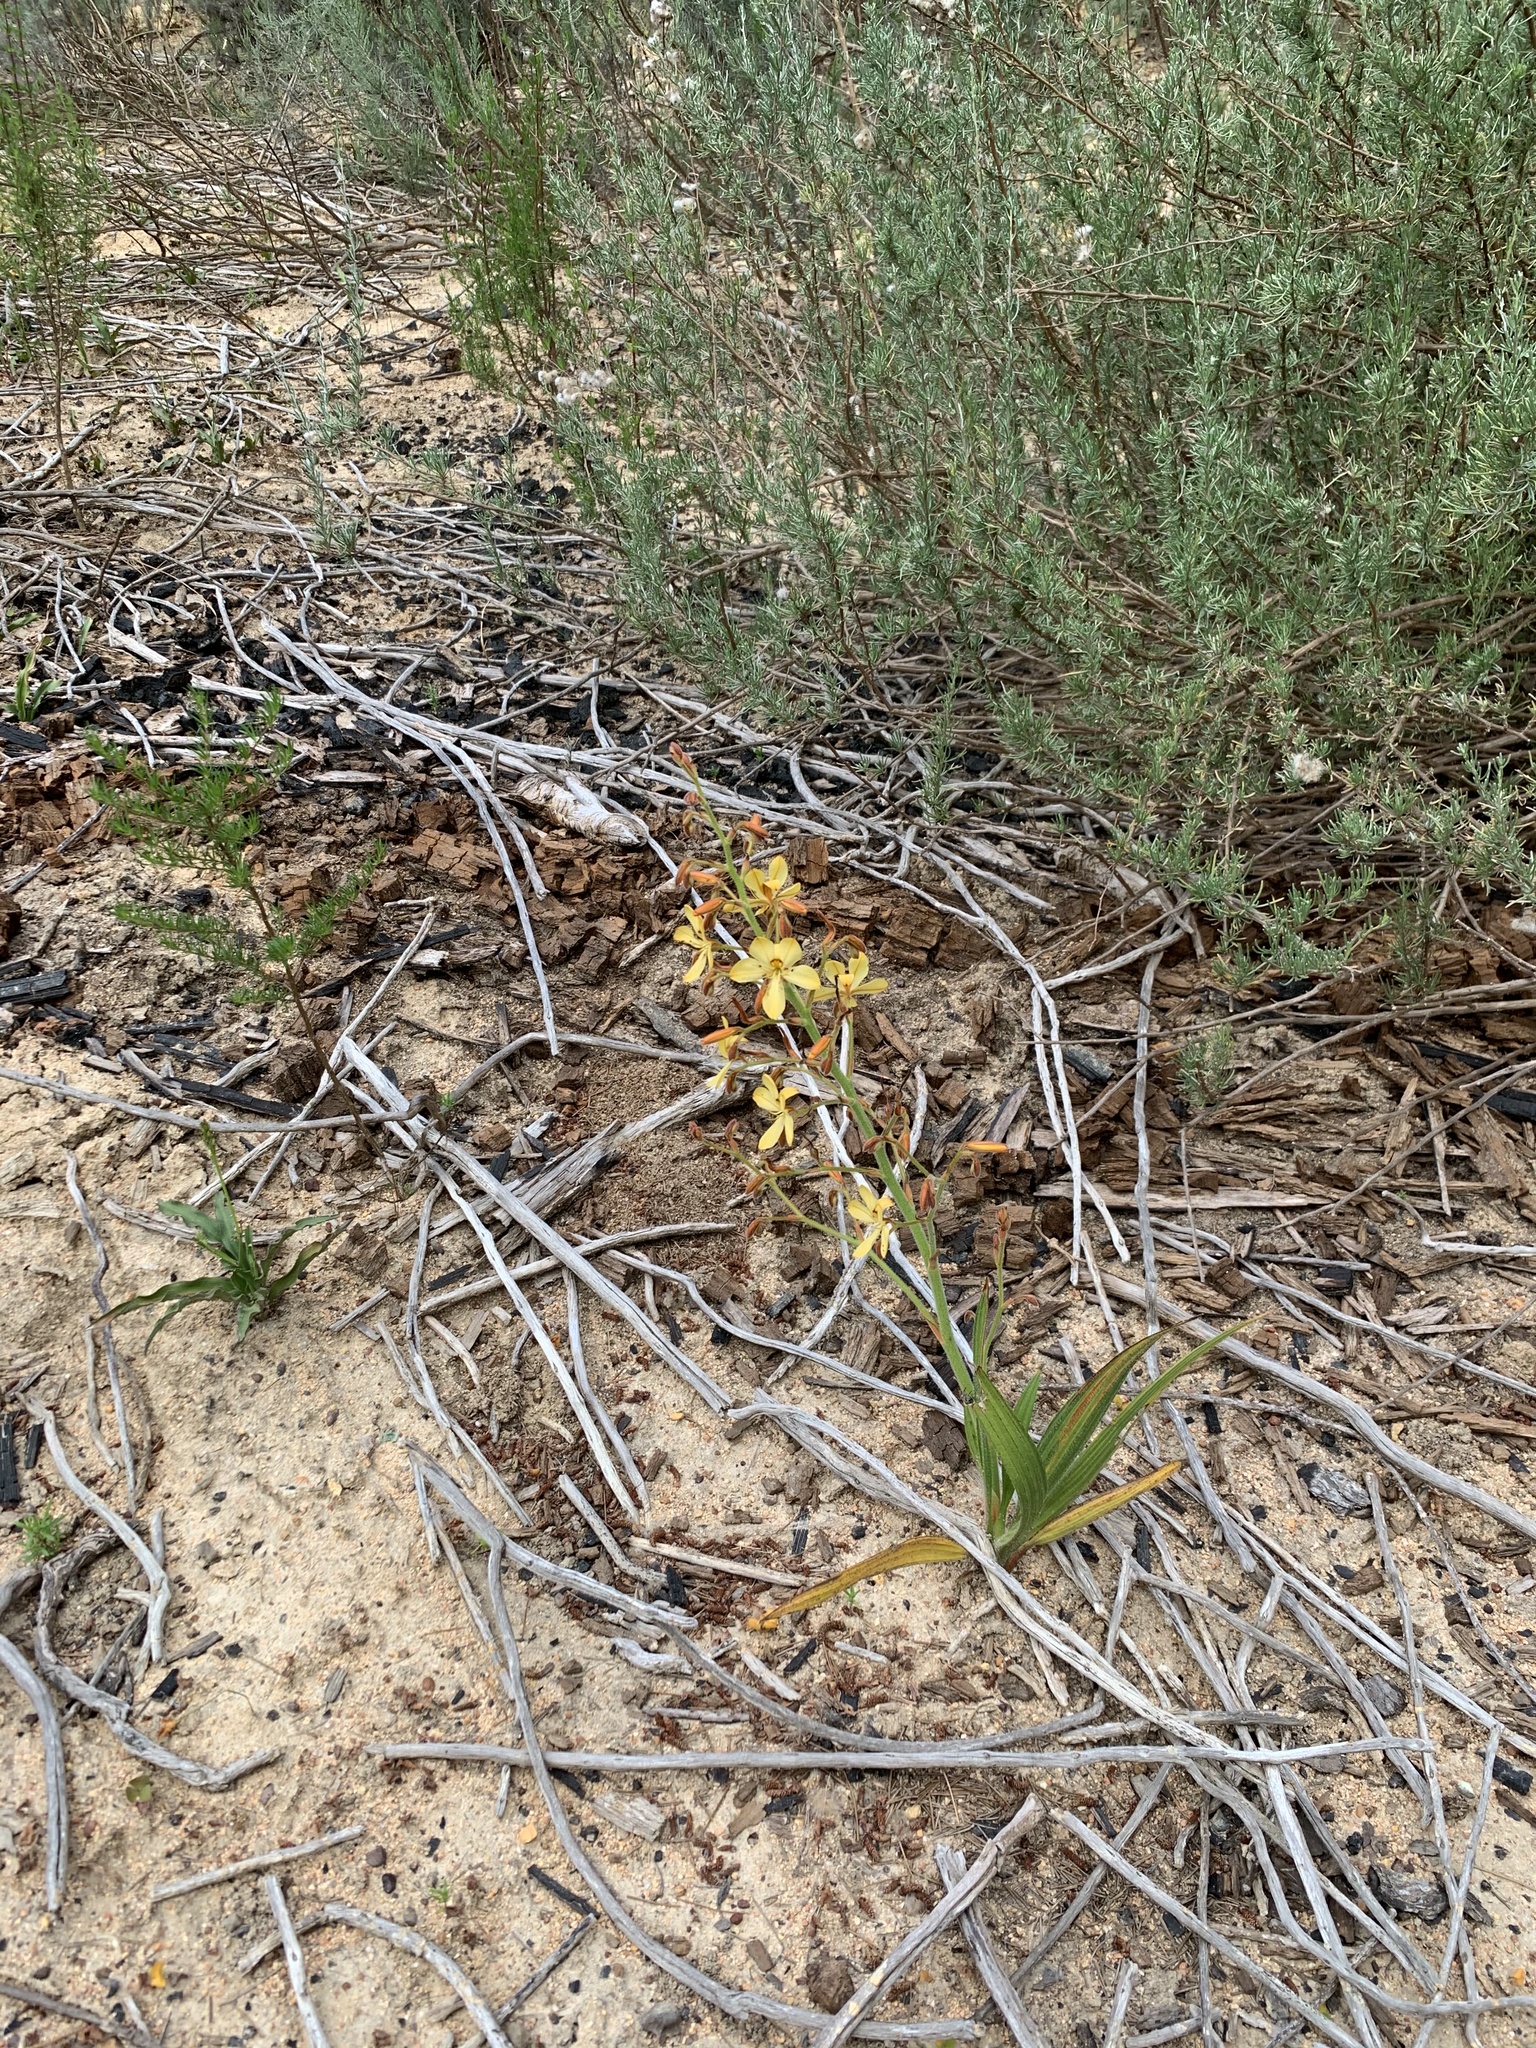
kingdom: Plantae
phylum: Tracheophyta
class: Liliopsida
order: Commelinales
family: Haemodoraceae
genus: Wachendorfia
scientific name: Wachendorfia paniculata
